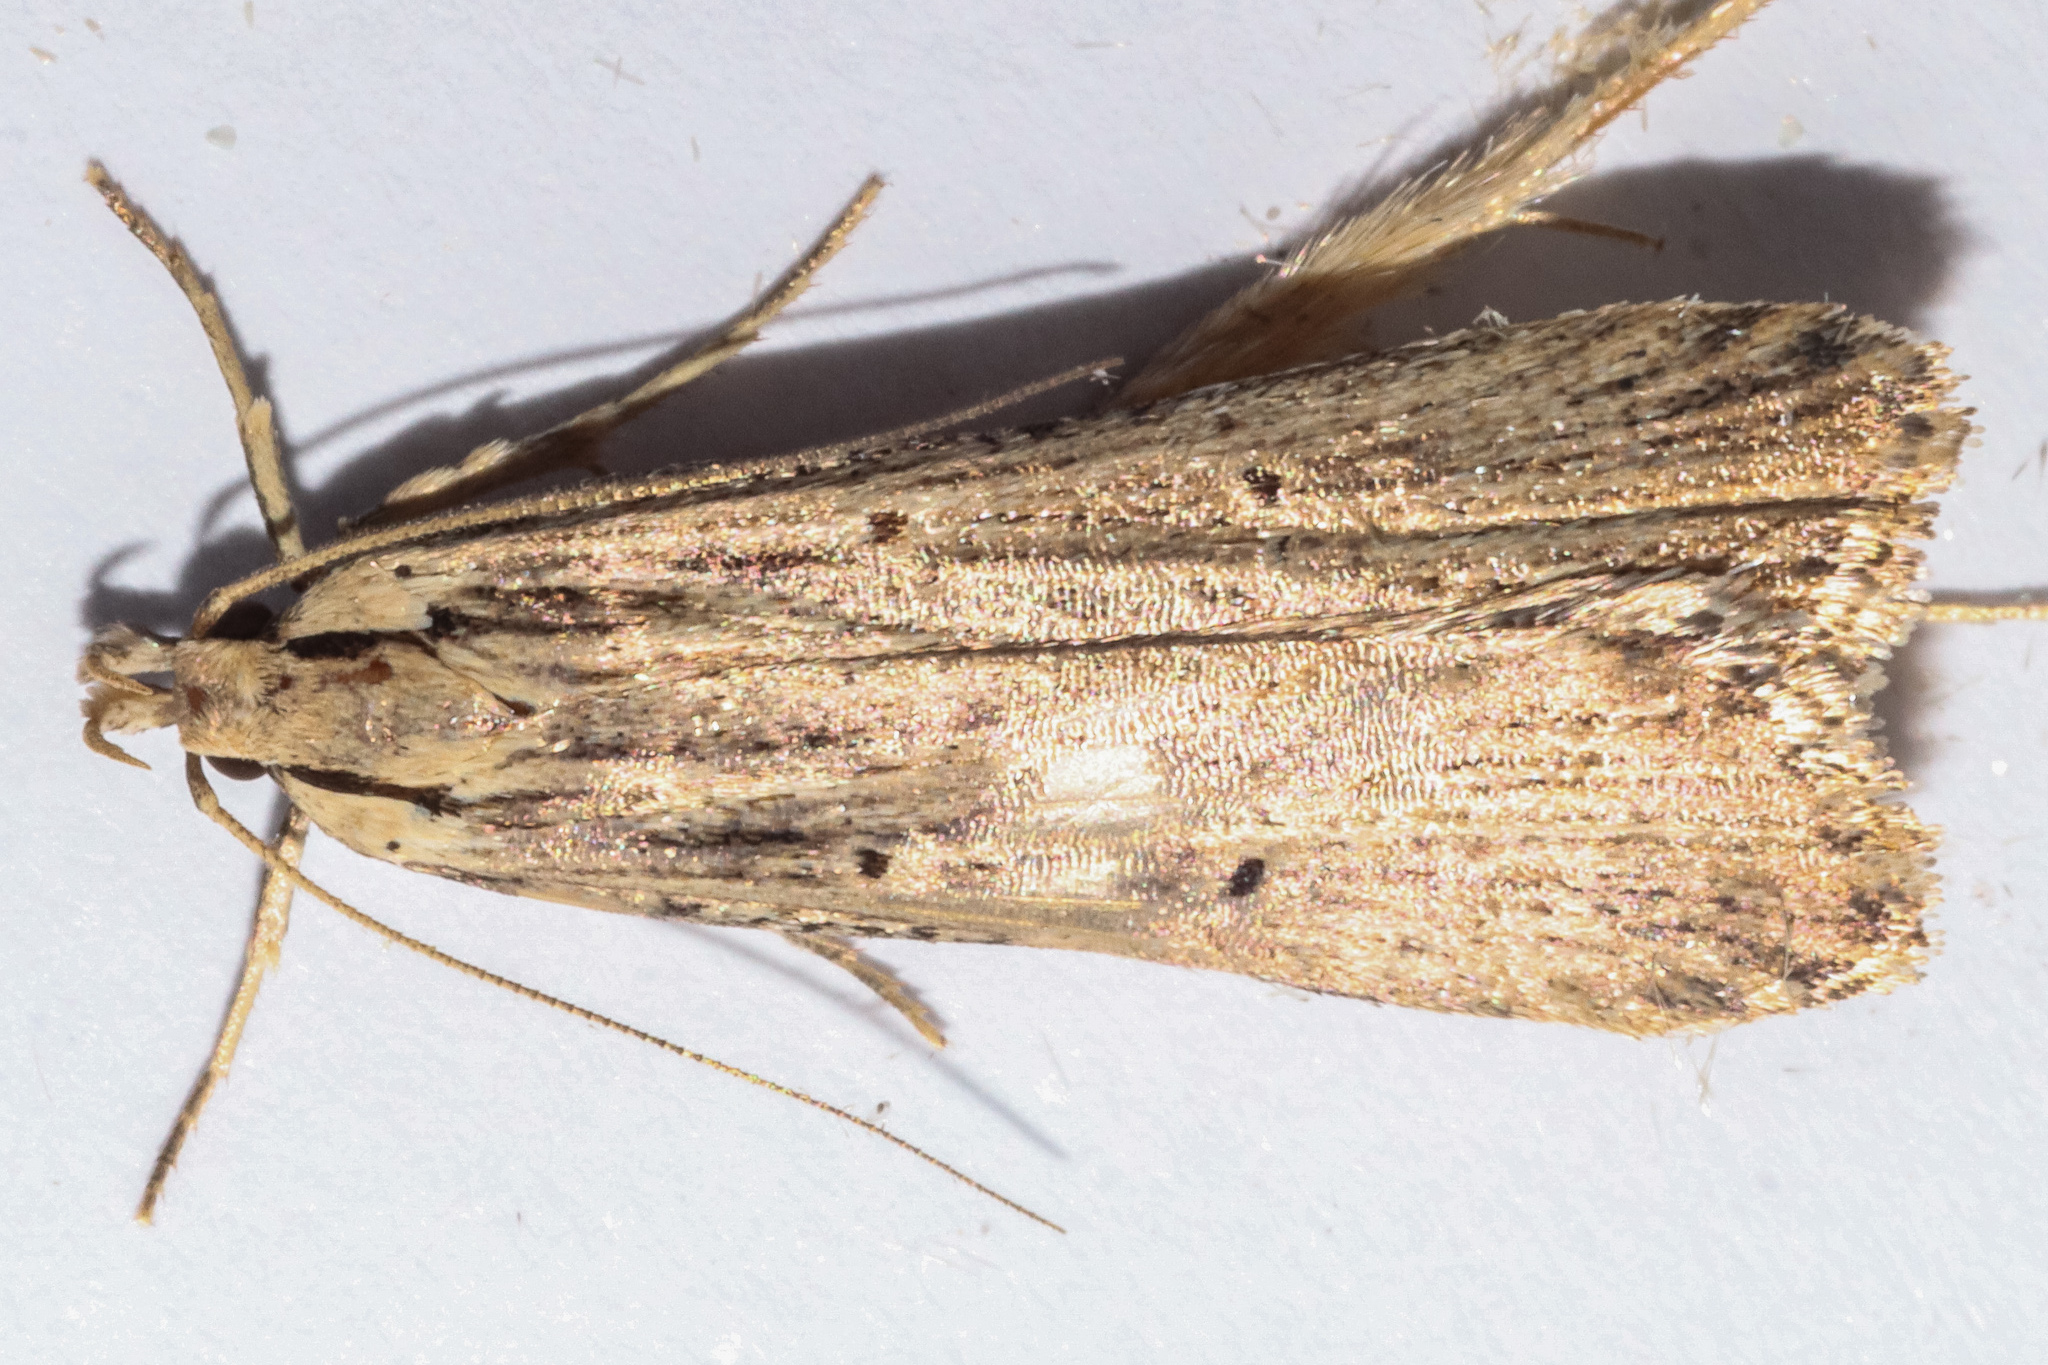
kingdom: Animalia
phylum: Arthropoda
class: Insecta
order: Lepidoptera
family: Gelechiidae
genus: Anisoplaca
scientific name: Anisoplaca ptyoptera
